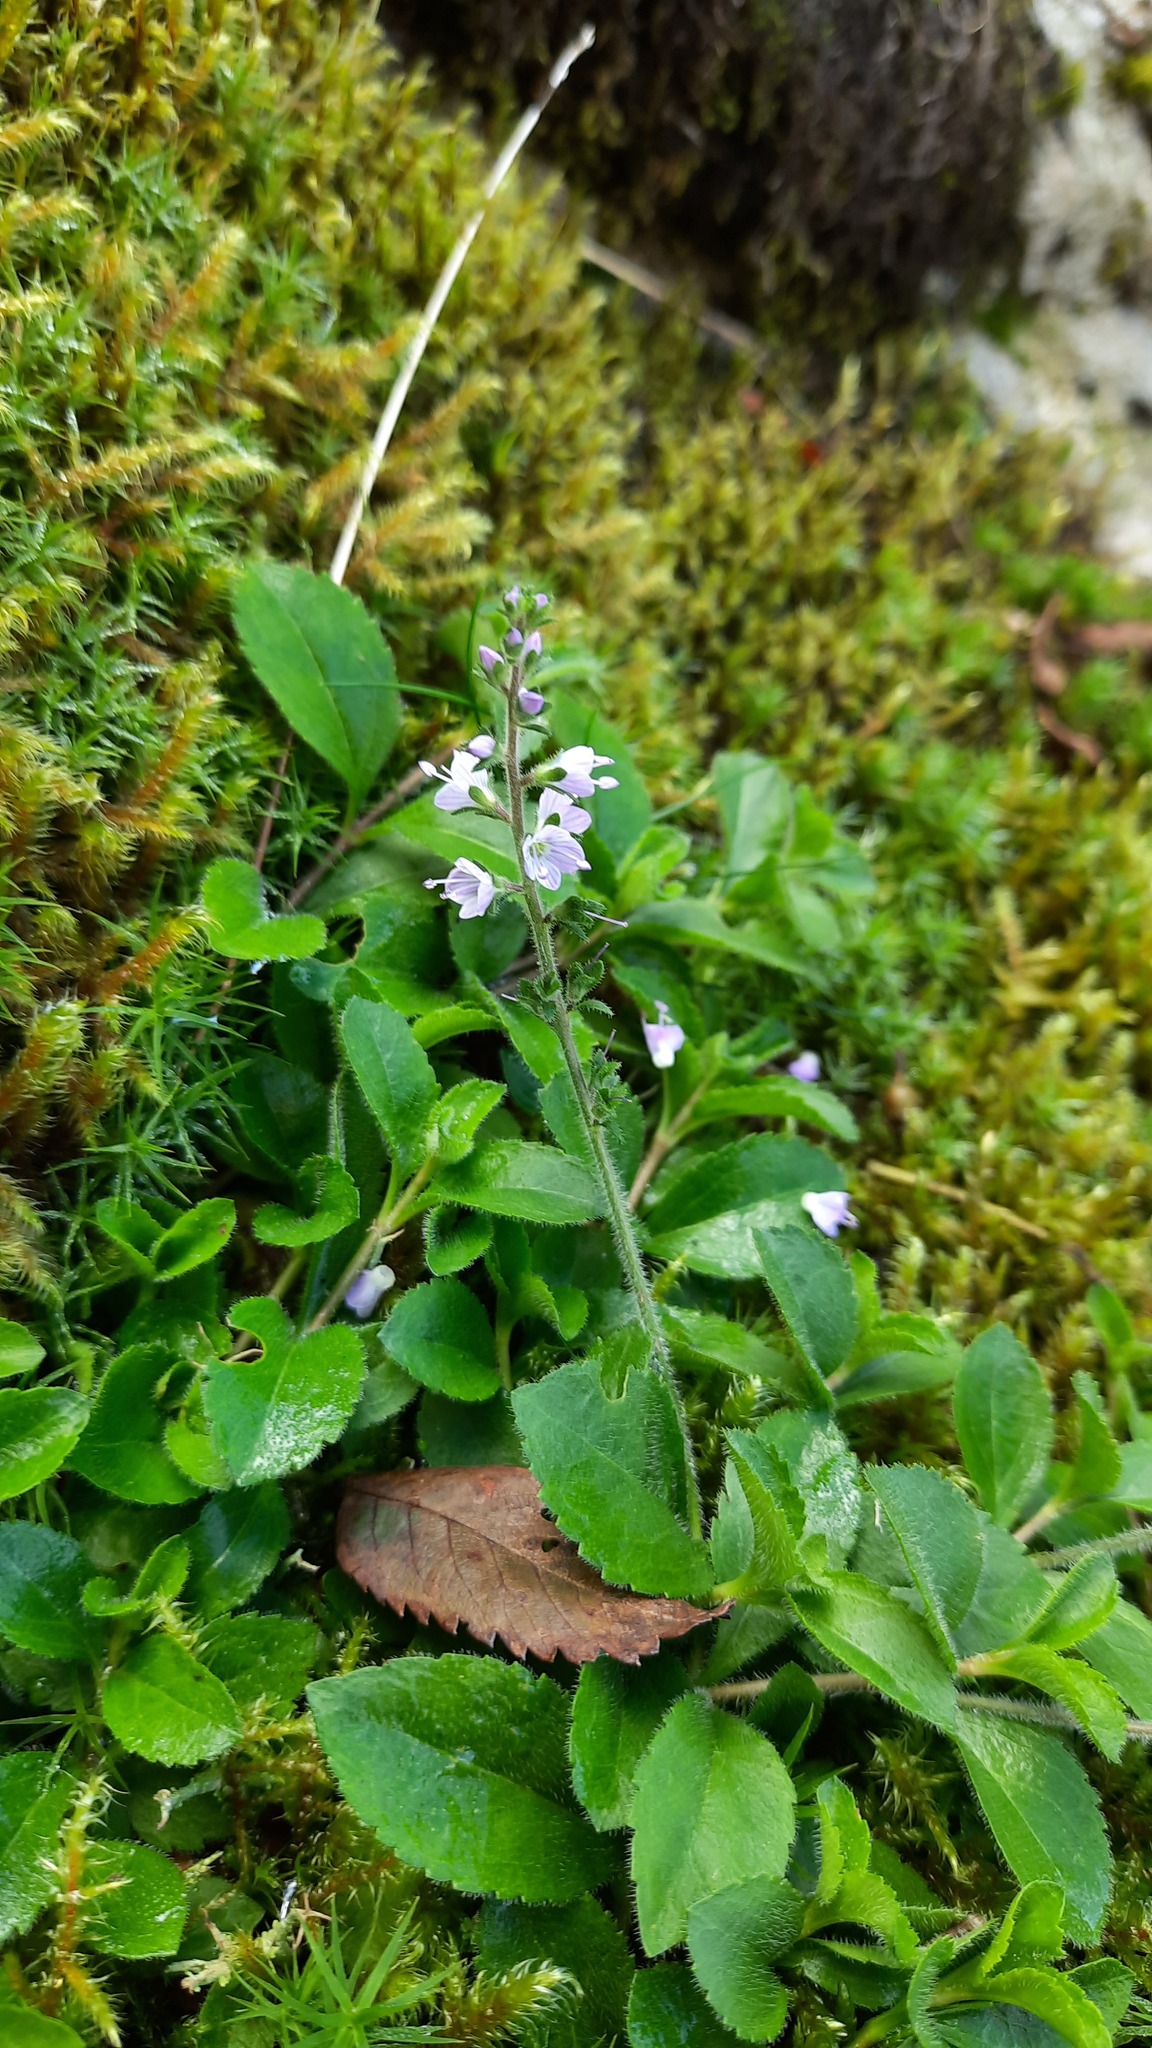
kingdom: Plantae
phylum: Tracheophyta
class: Magnoliopsida
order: Lamiales
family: Plantaginaceae
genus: Veronica
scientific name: Veronica officinalis
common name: Common speedwell
